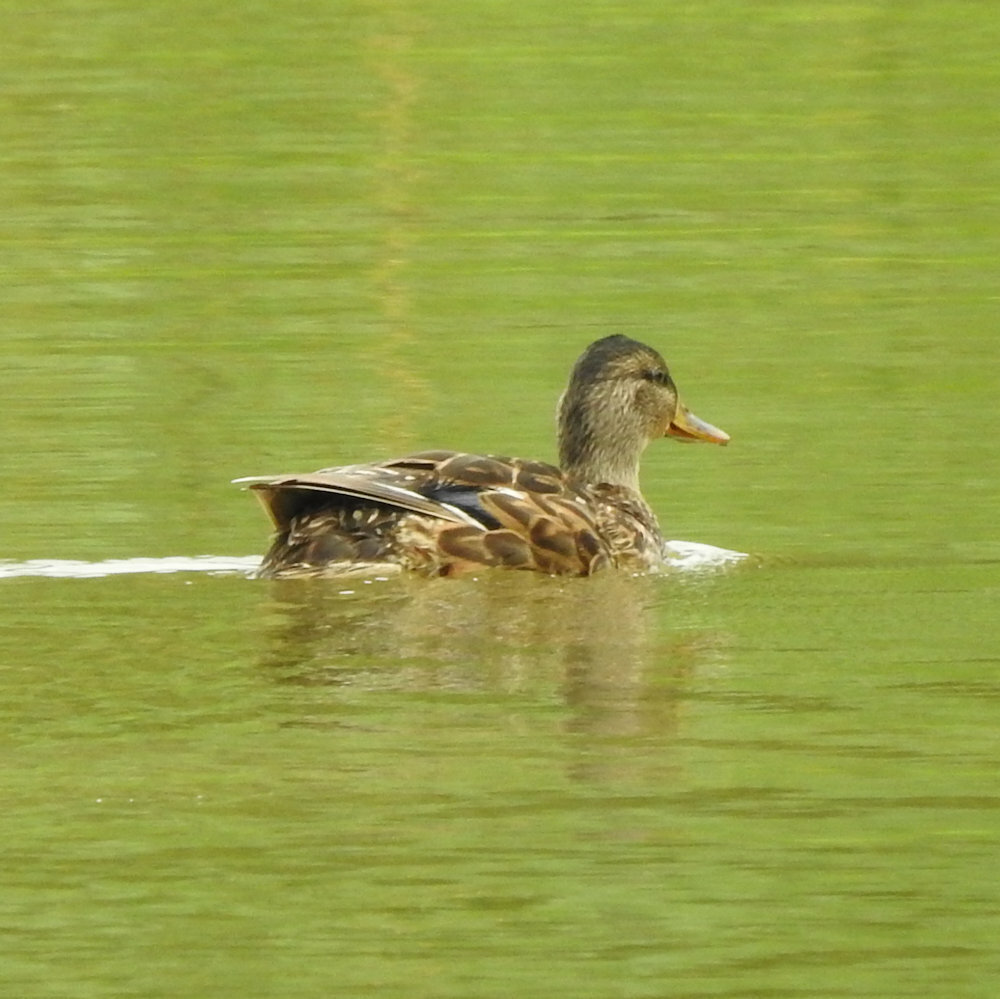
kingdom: Animalia
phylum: Chordata
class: Aves
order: Anseriformes
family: Anatidae
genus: Anas
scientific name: Anas platyrhynchos
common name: Mallard
